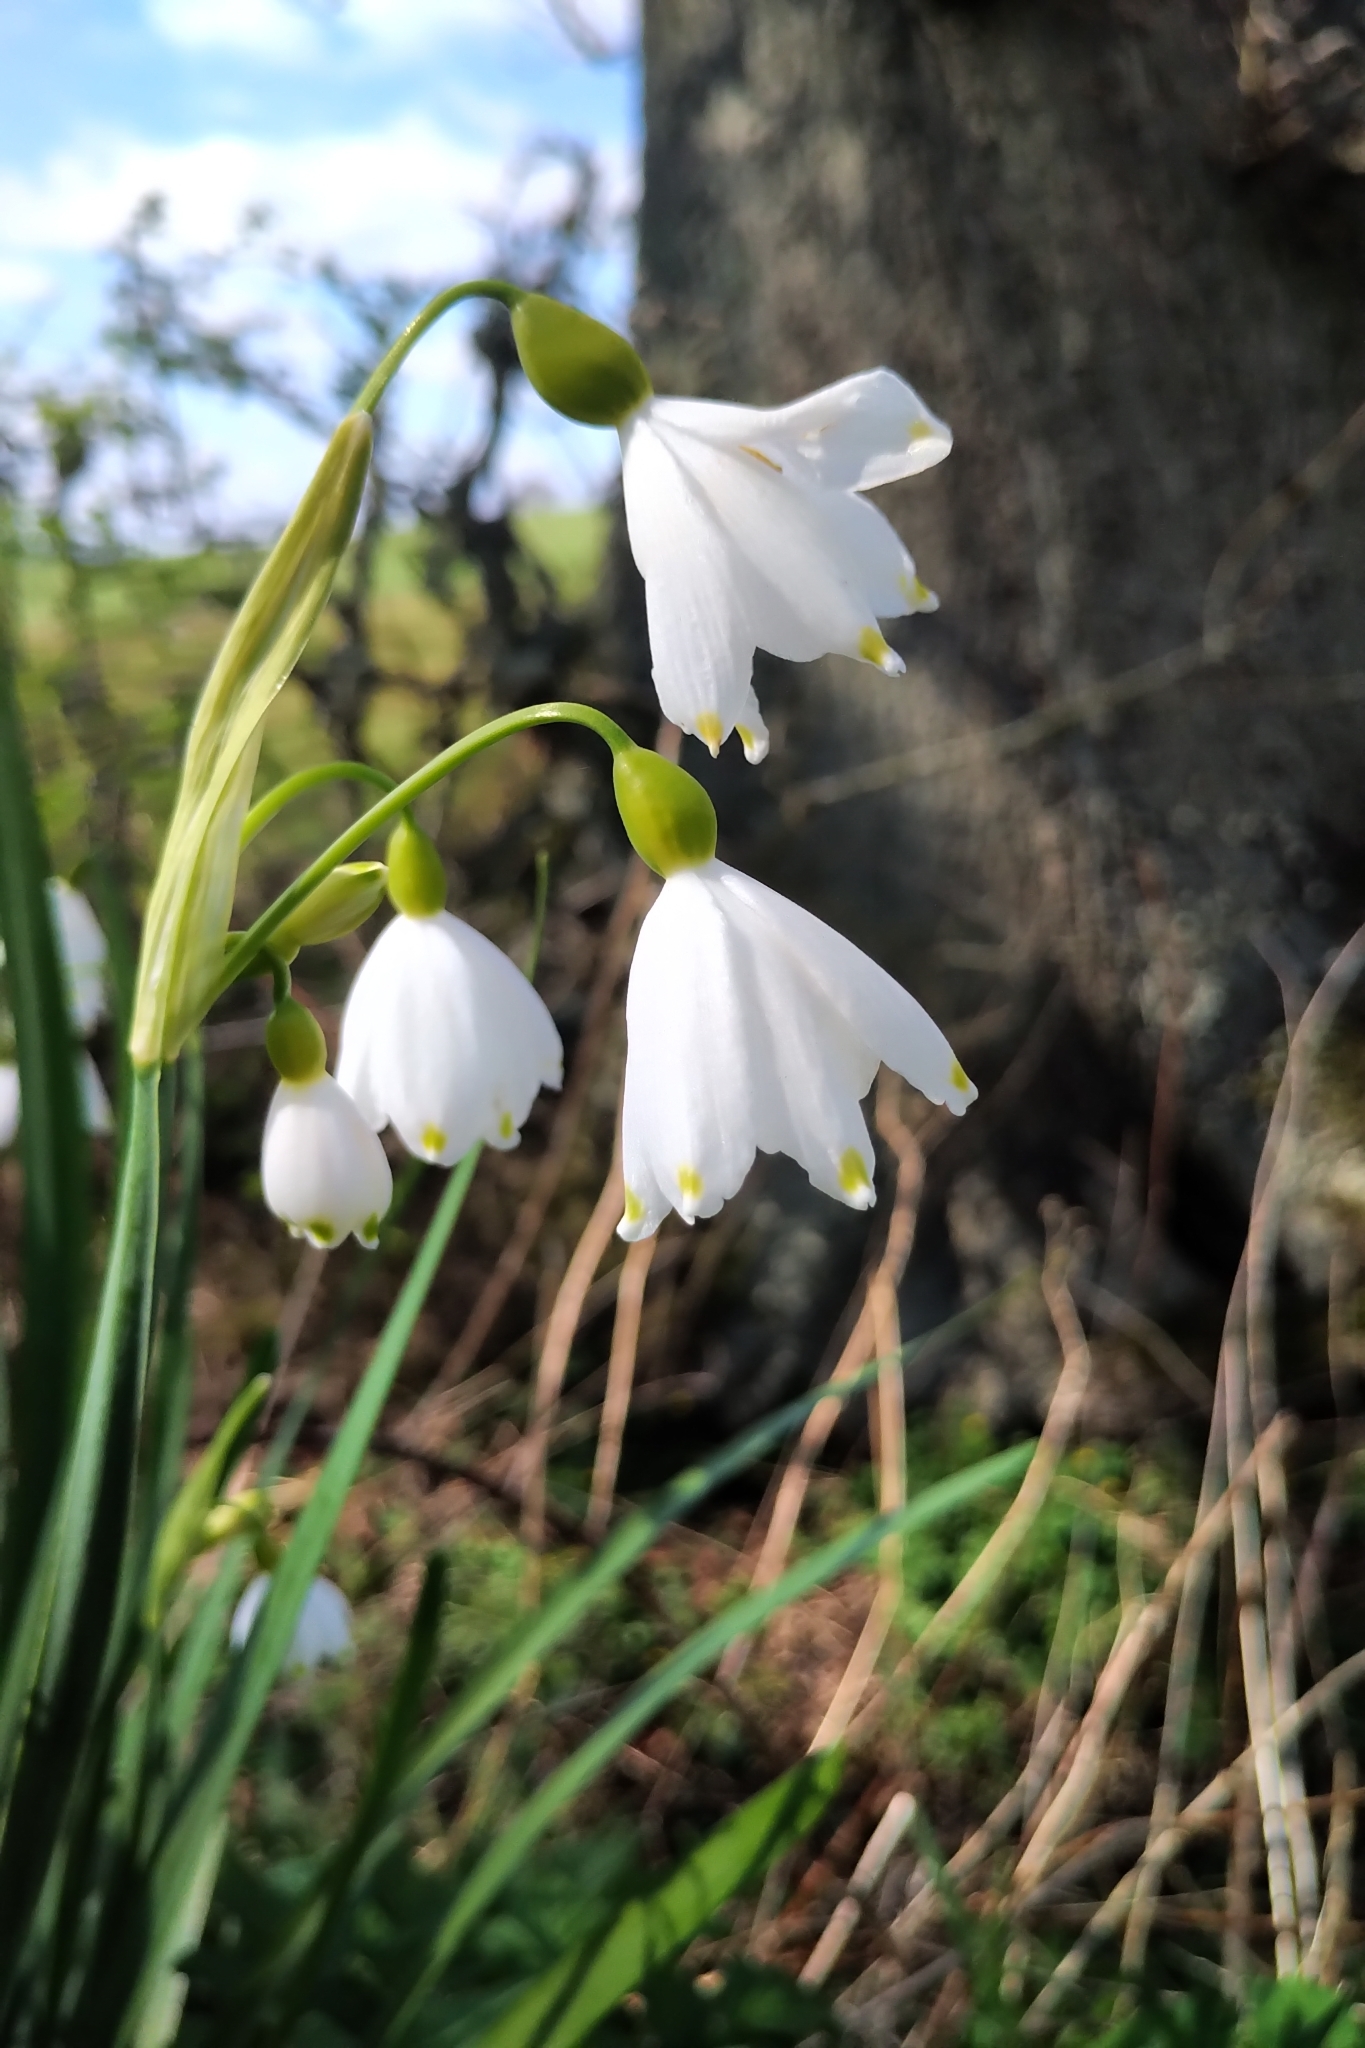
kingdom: Plantae
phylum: Tracheophyta
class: Liliopsida
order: Asparagales
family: Amaryllidaceae
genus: Leucojum
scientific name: Leucojum aestivum
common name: Summer snowflake
